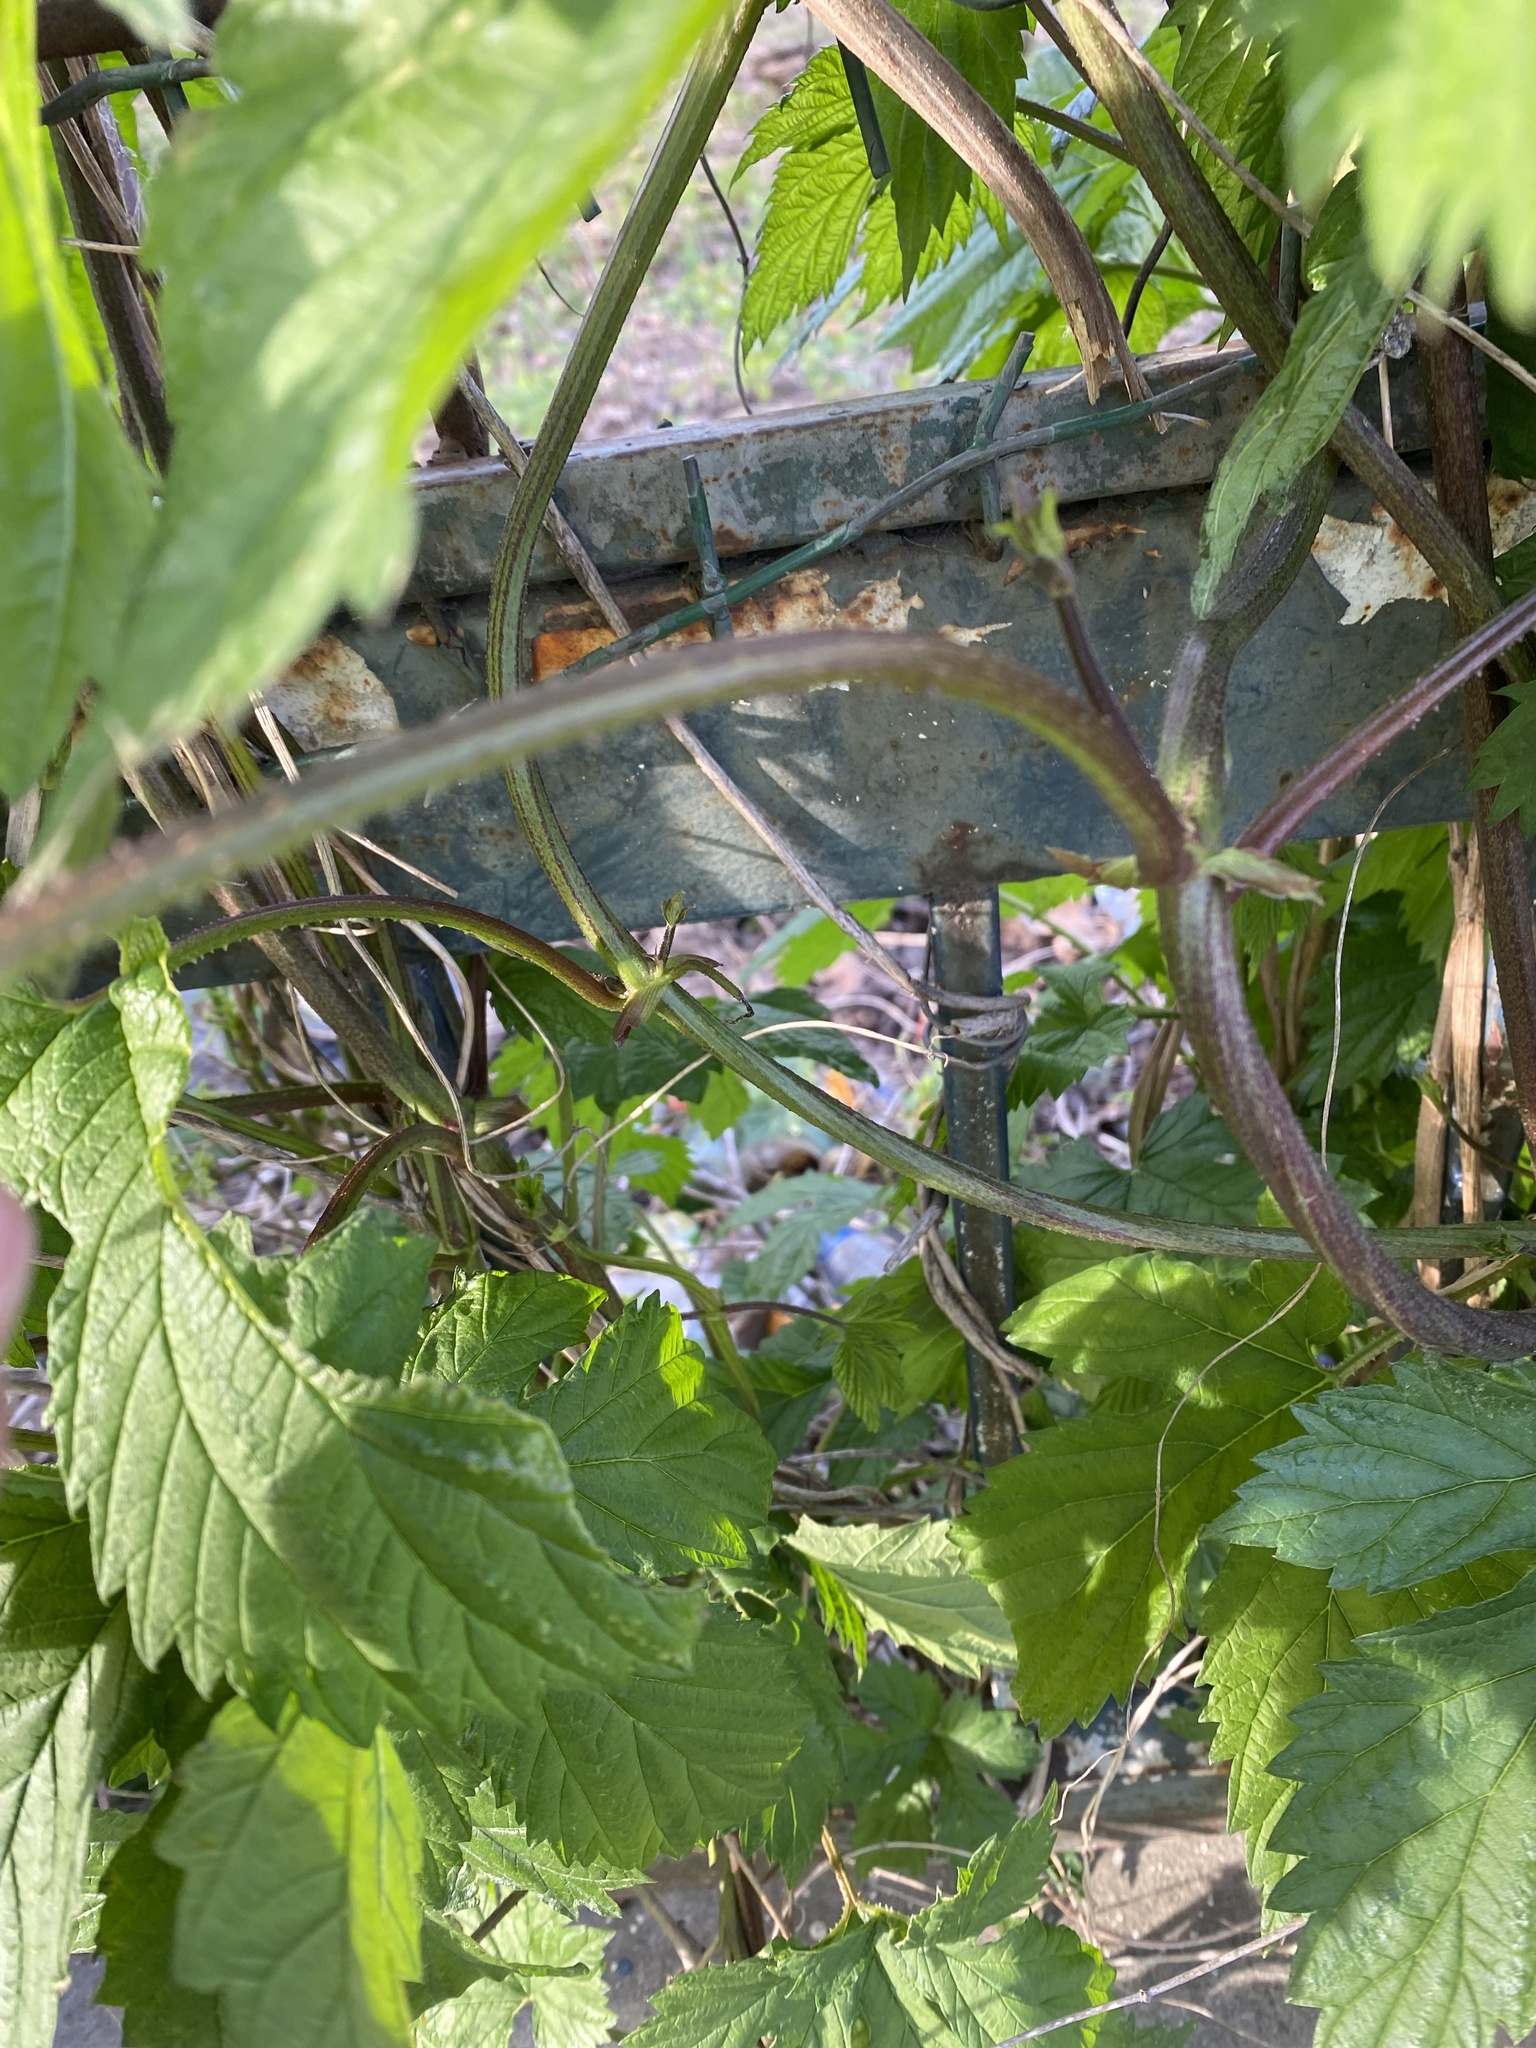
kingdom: Plantae
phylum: Tracheophyta
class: Magnoliopsida
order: Rosales
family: Cannabaceae
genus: Humulus
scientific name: Humulus lupulus
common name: Hop
